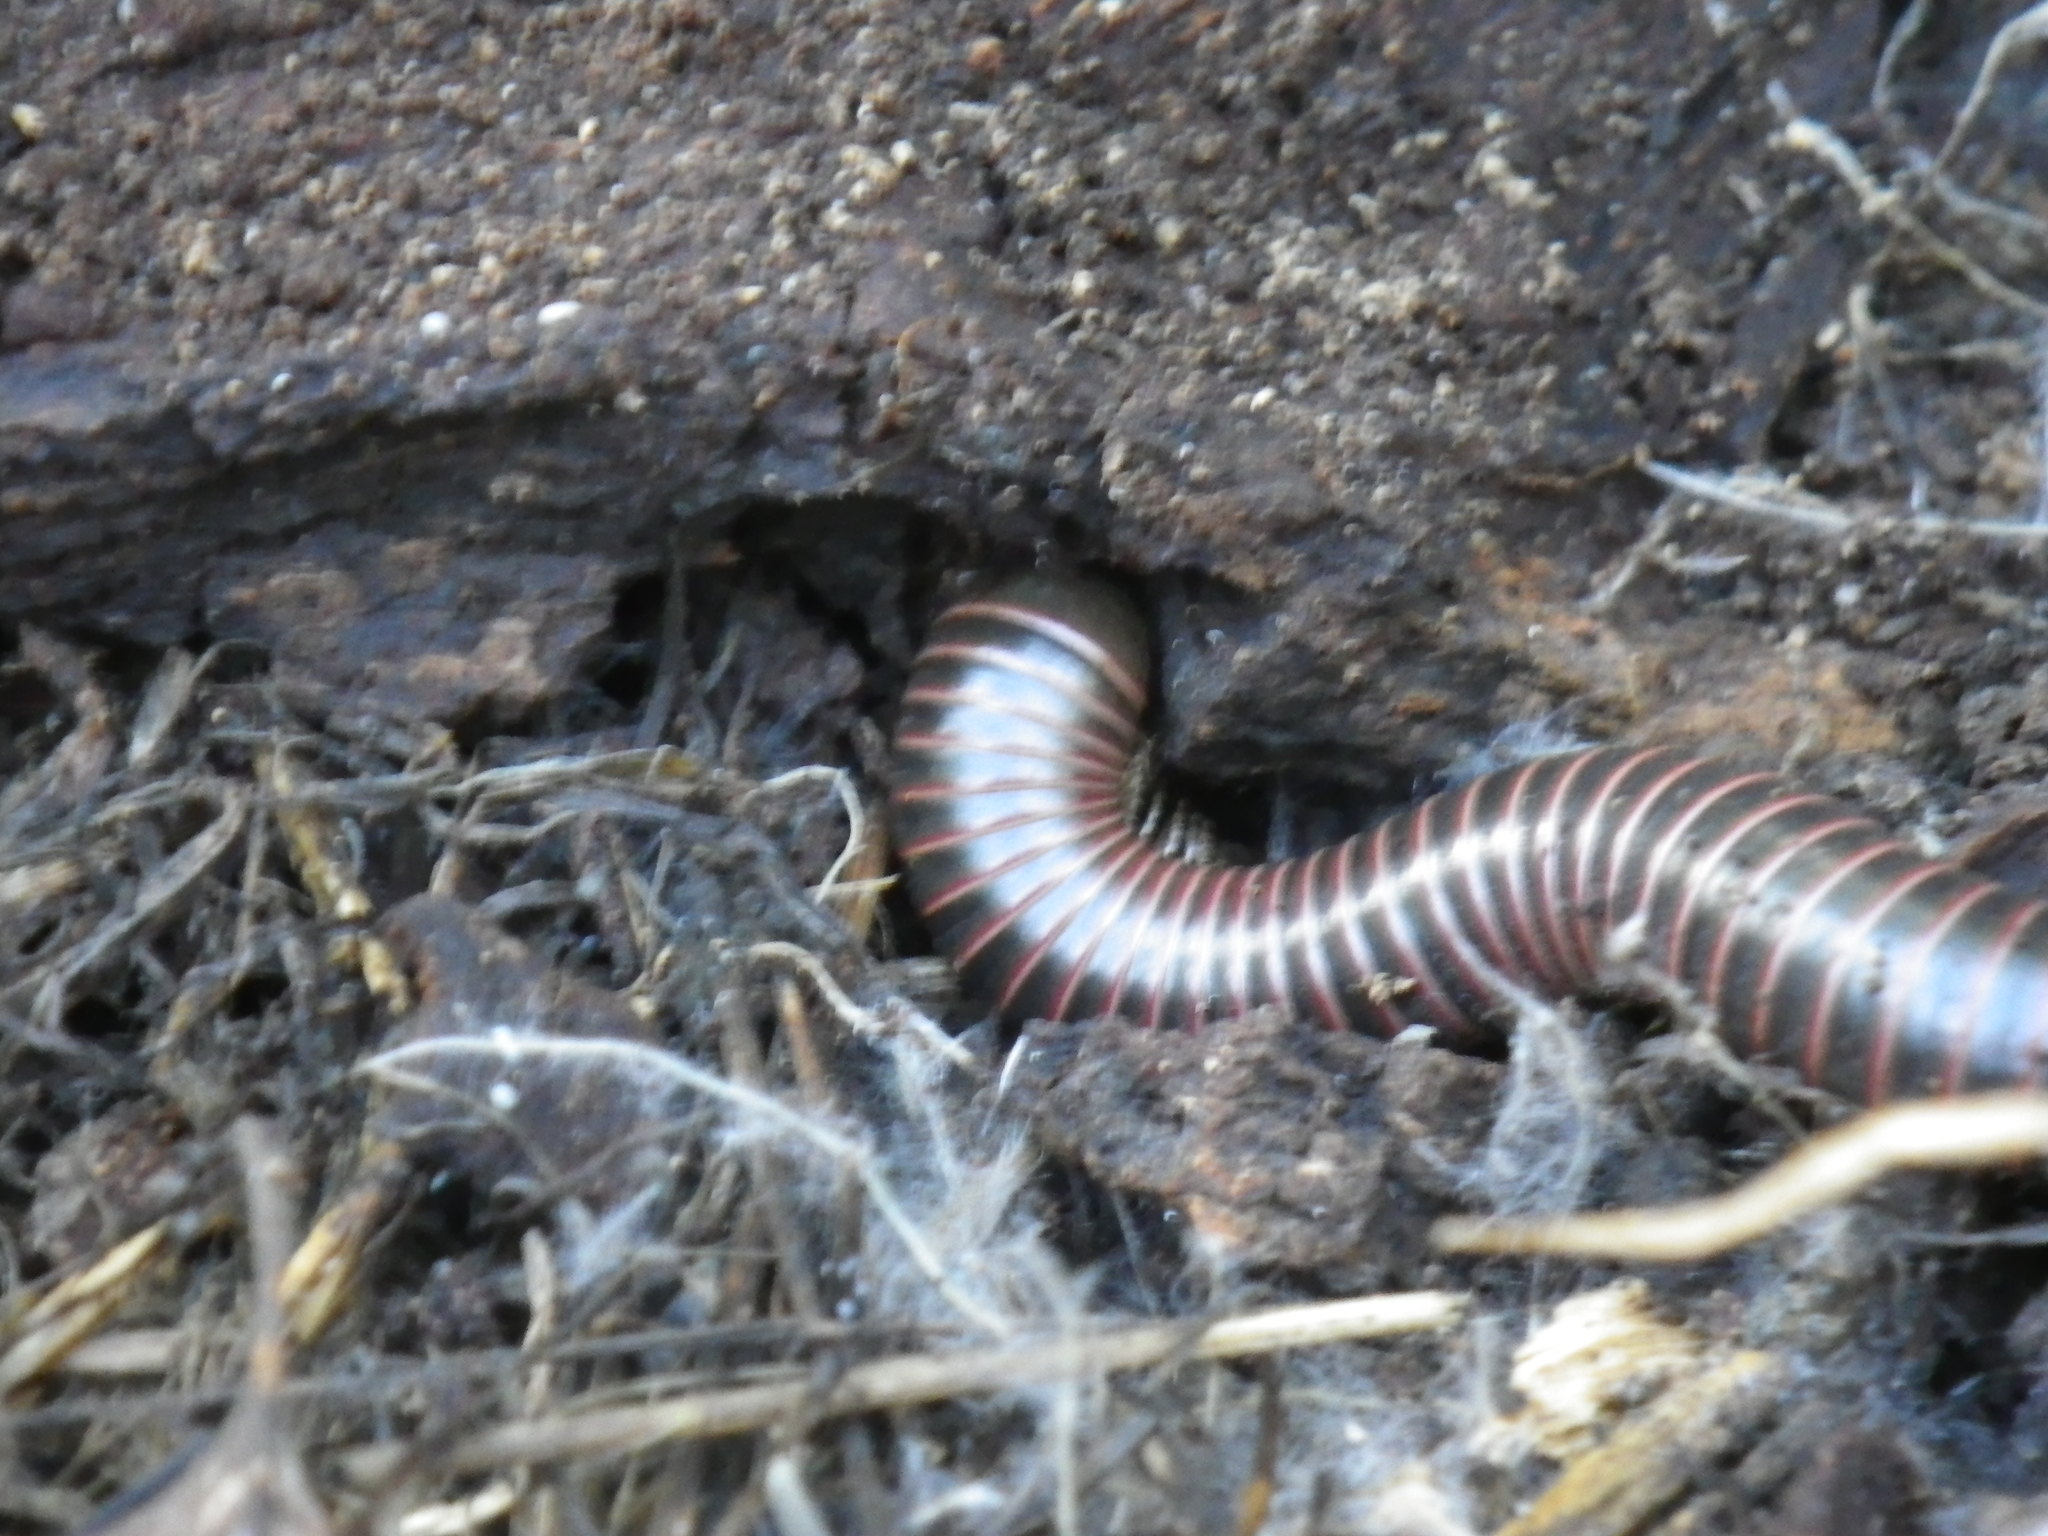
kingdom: Animalia
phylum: Arthropoda
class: Diplopoda
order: Spirobolida
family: Spirobolidae
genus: Tylobolus
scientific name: Tylobolus uncigerus
